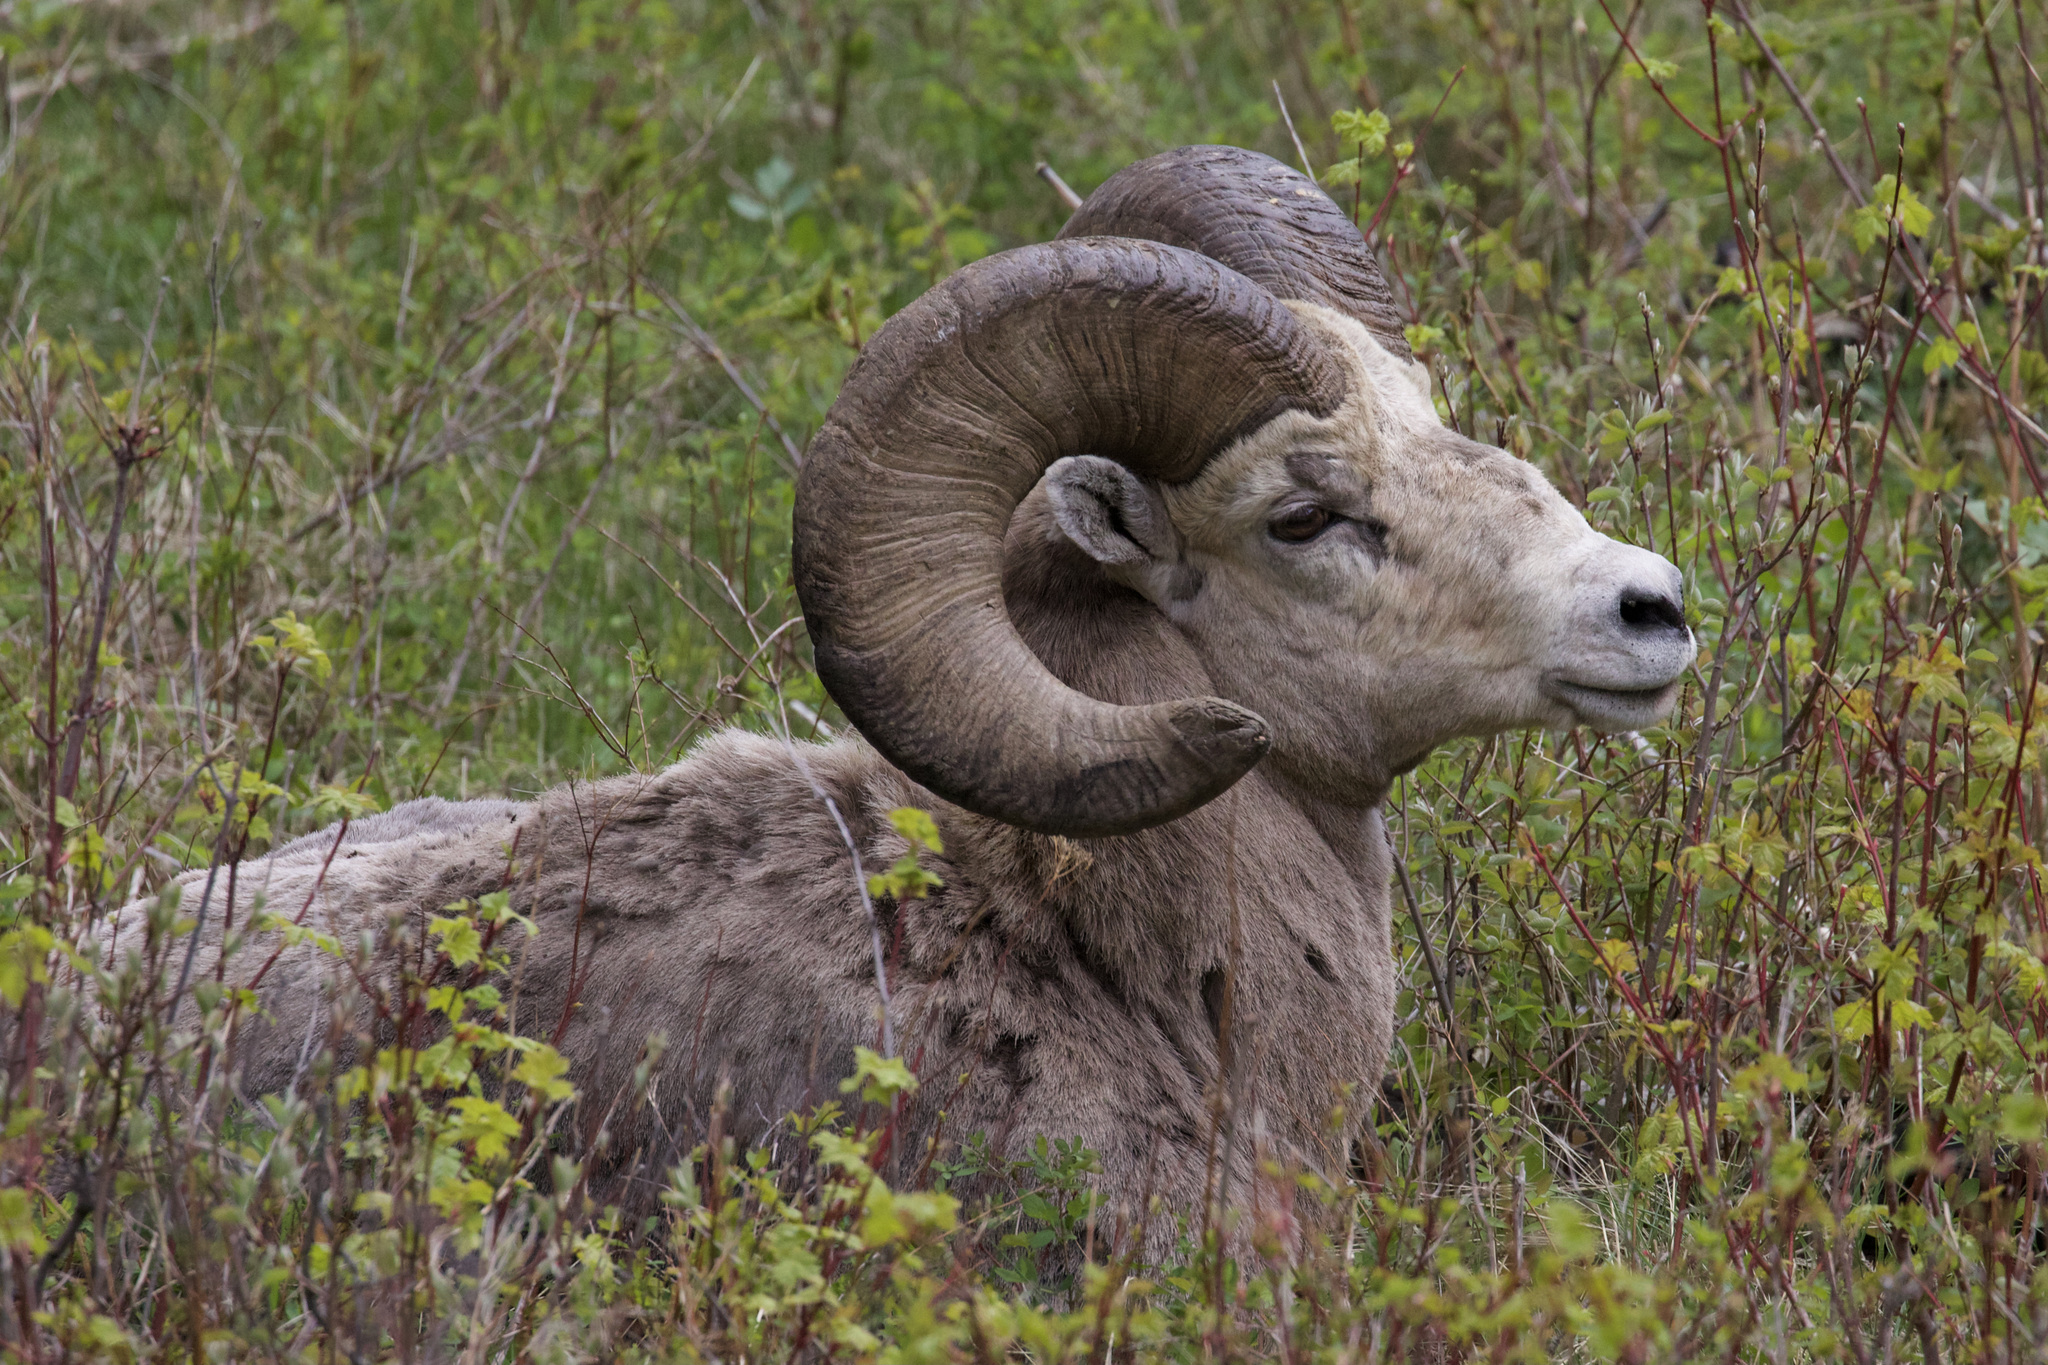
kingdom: Animalia
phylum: Chordata
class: Mammalia
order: Artiodactyla
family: Bovidae
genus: Ovis
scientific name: Ovis canadensis
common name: Bighorn sheep
